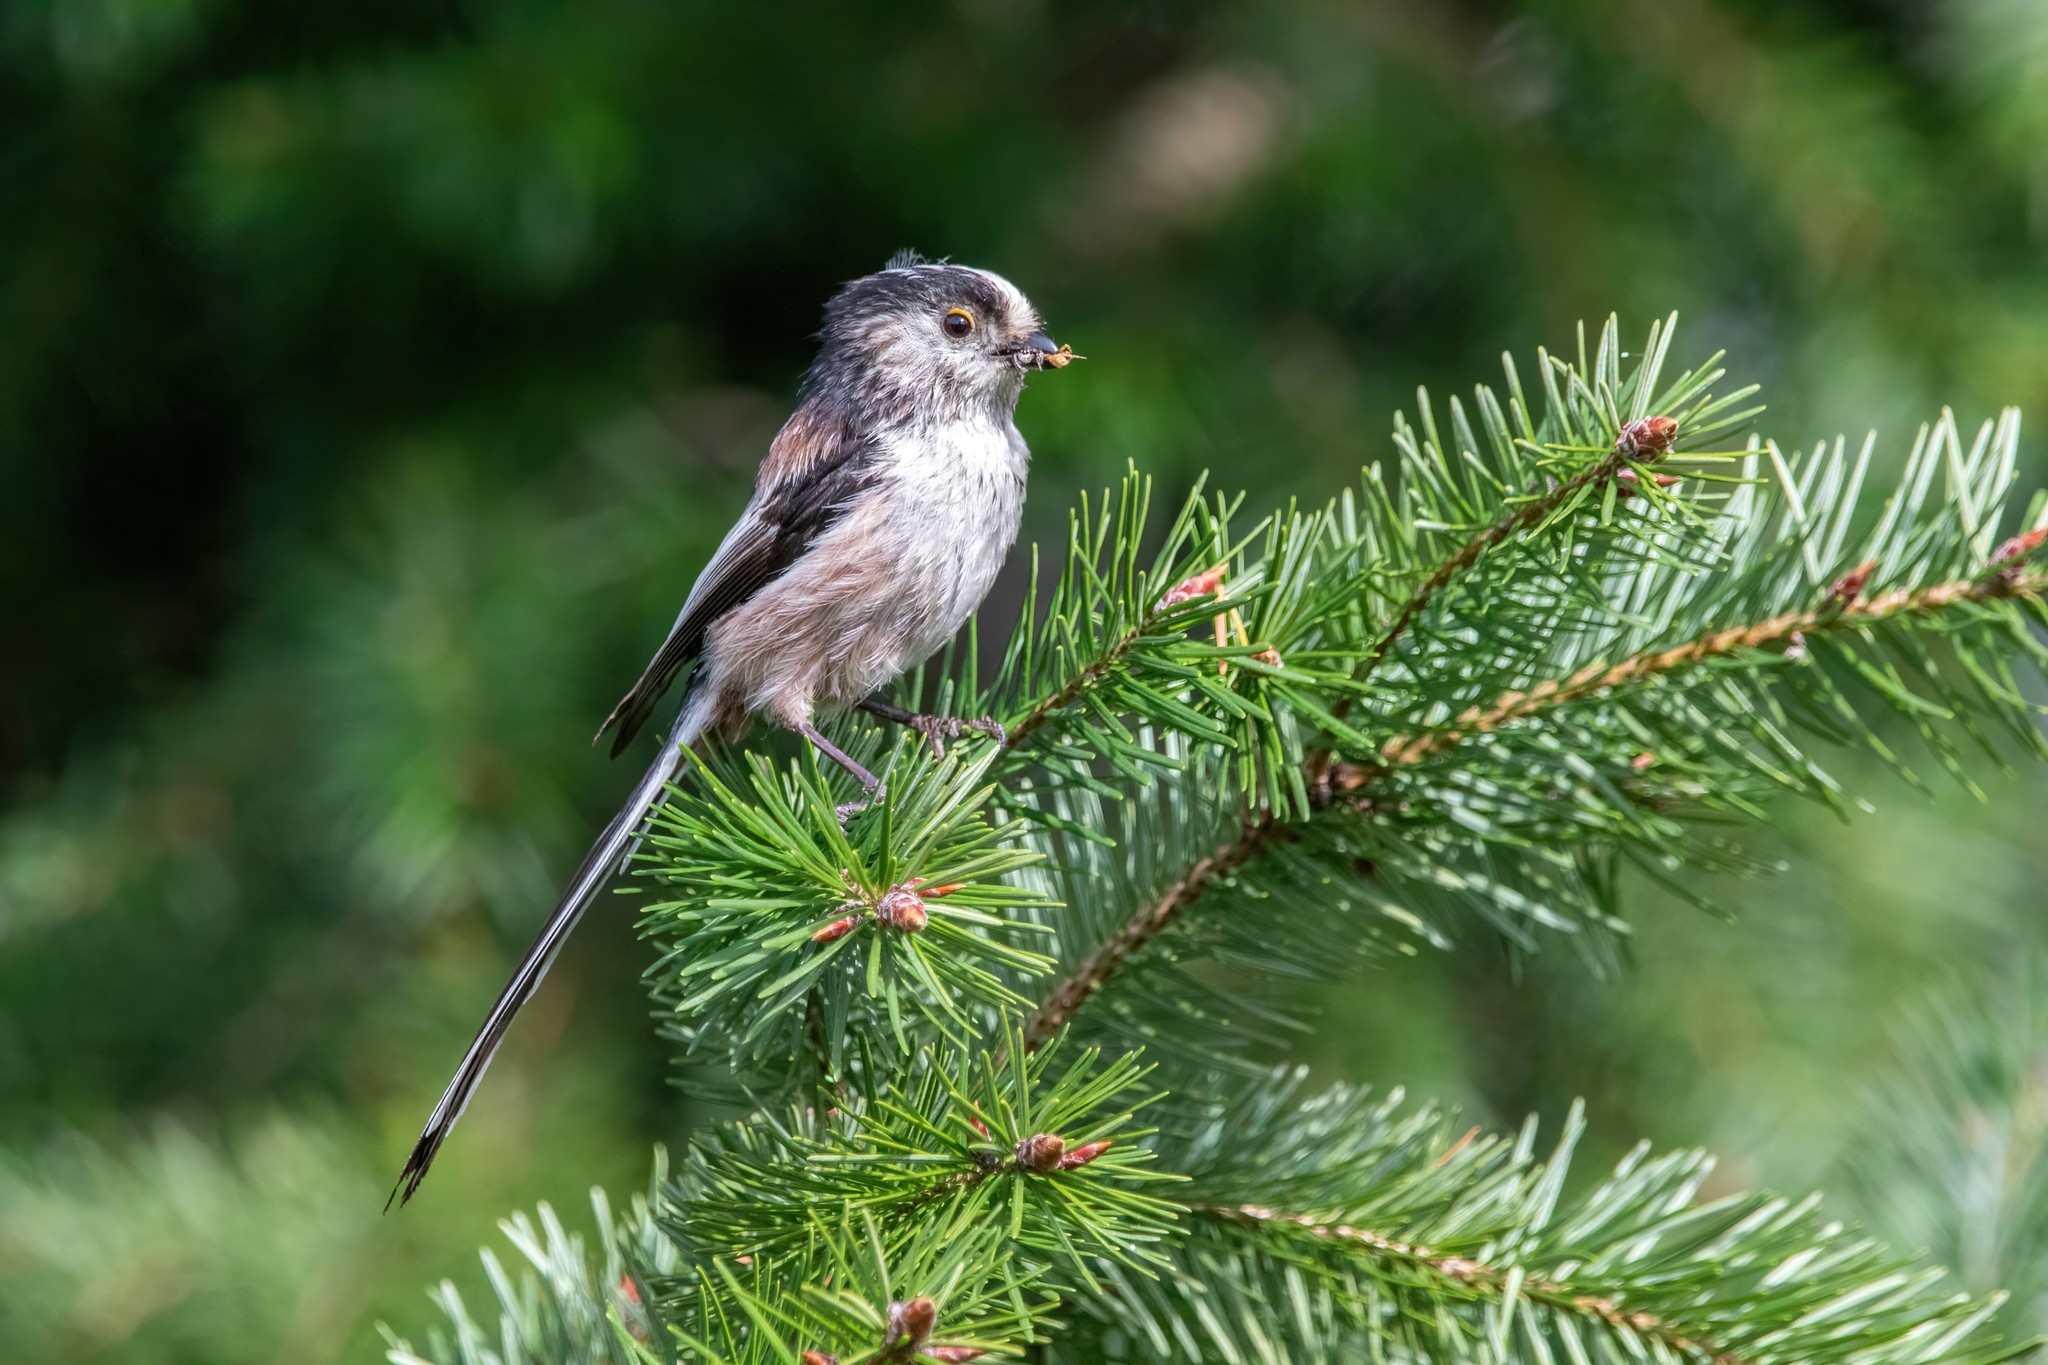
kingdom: Animalia
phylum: Chordata
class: Aves
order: Passeriformes
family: Aegithalidae
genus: Aegithalos
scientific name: Aegithalos caudatus
